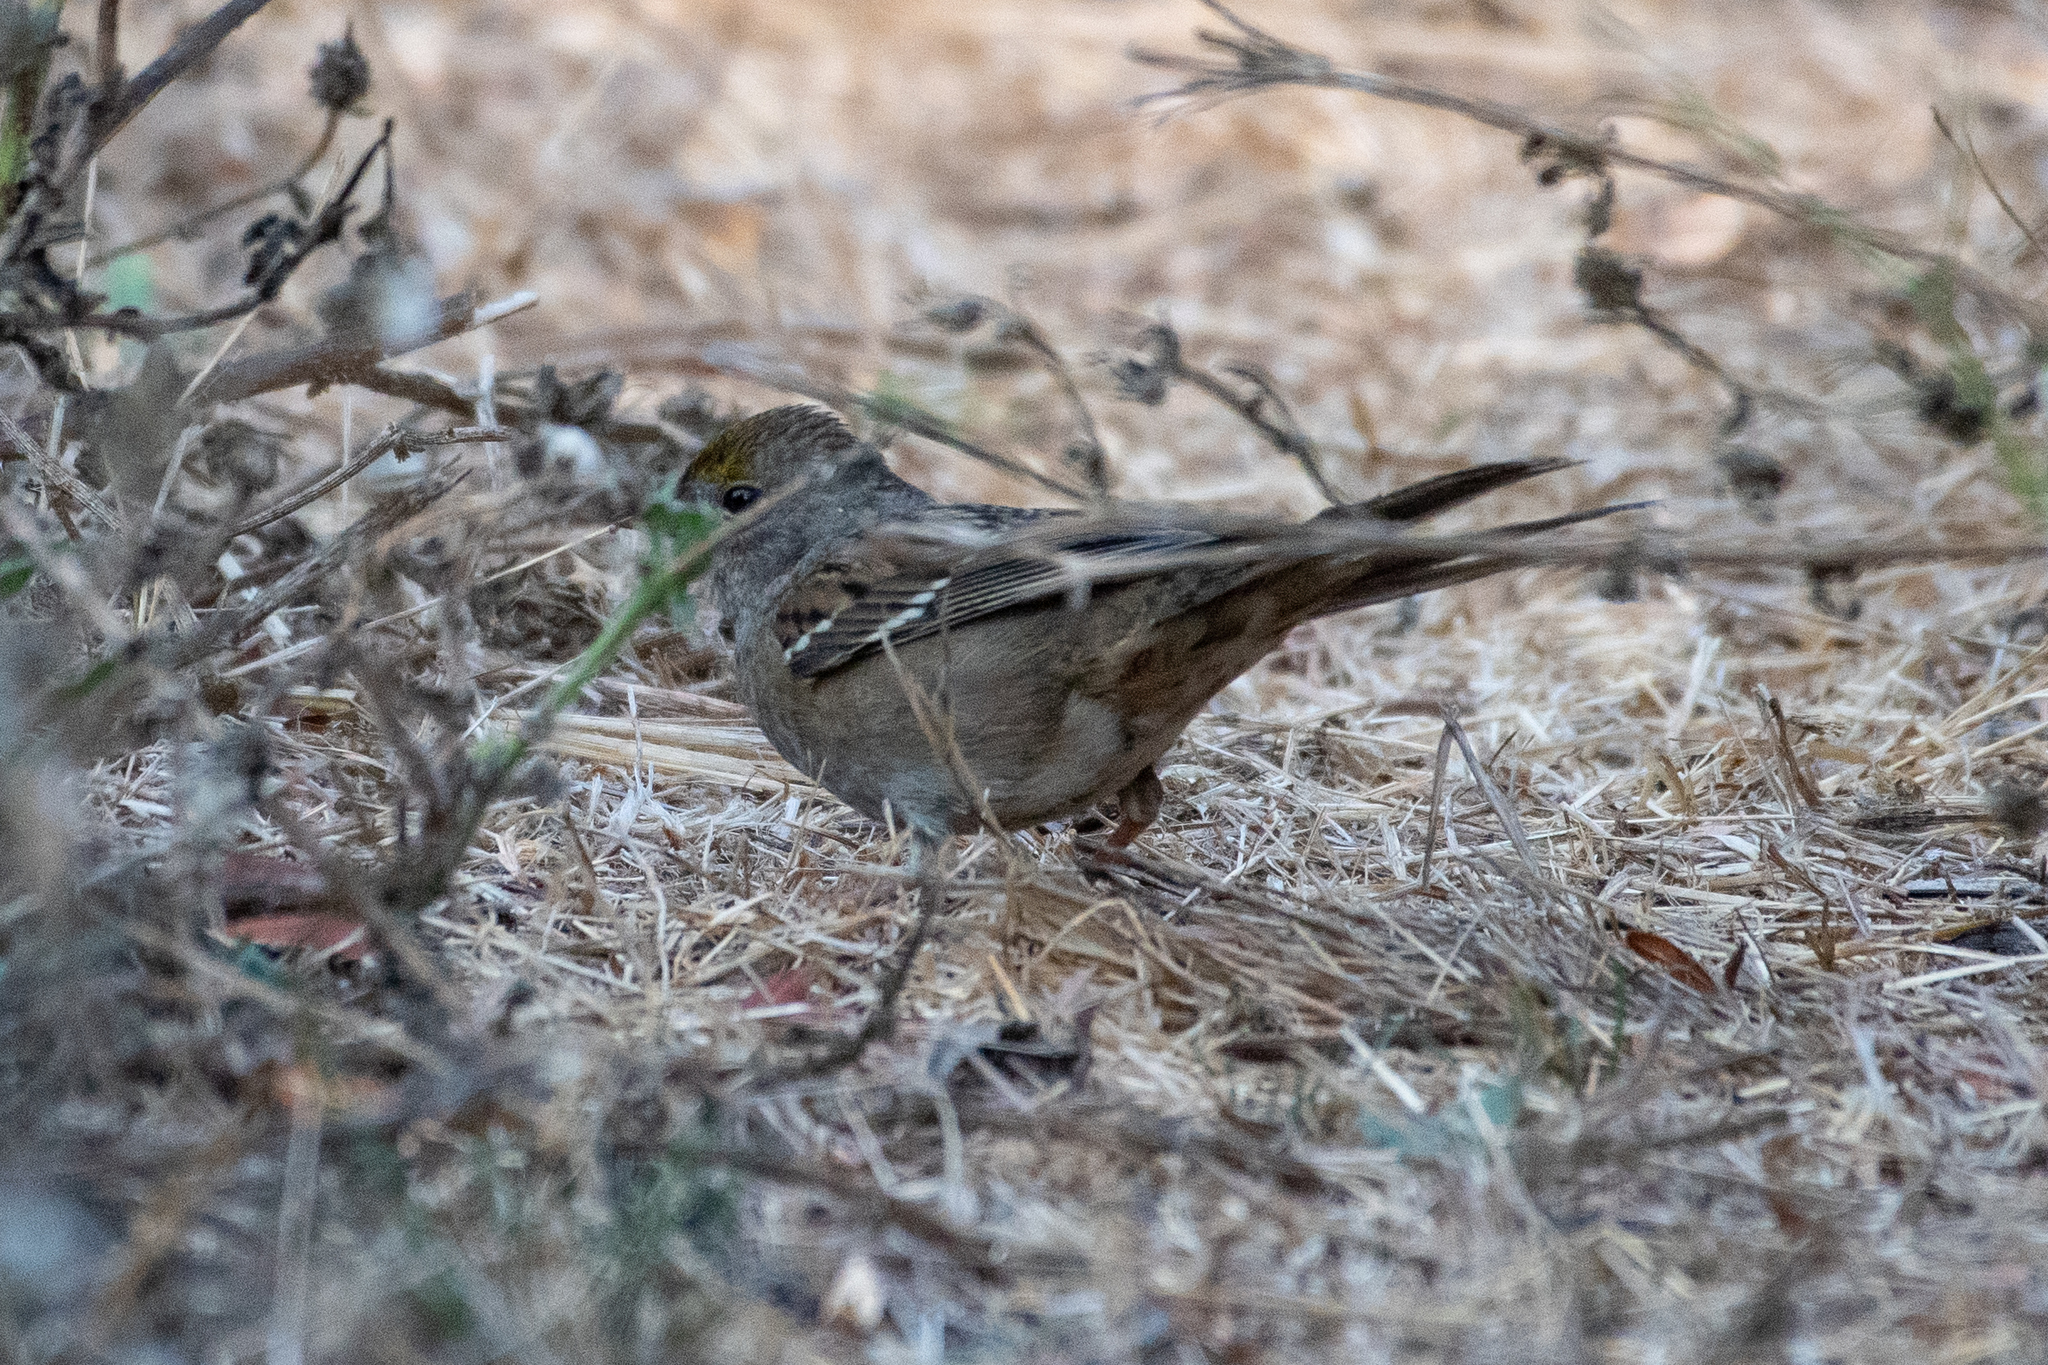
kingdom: Animalia
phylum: Chordata
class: Aves
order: Passeriformes
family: Passerellidae
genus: Zonotrichia
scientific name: Zonotrichia atricapilla
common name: Golden-crowned sparrow
